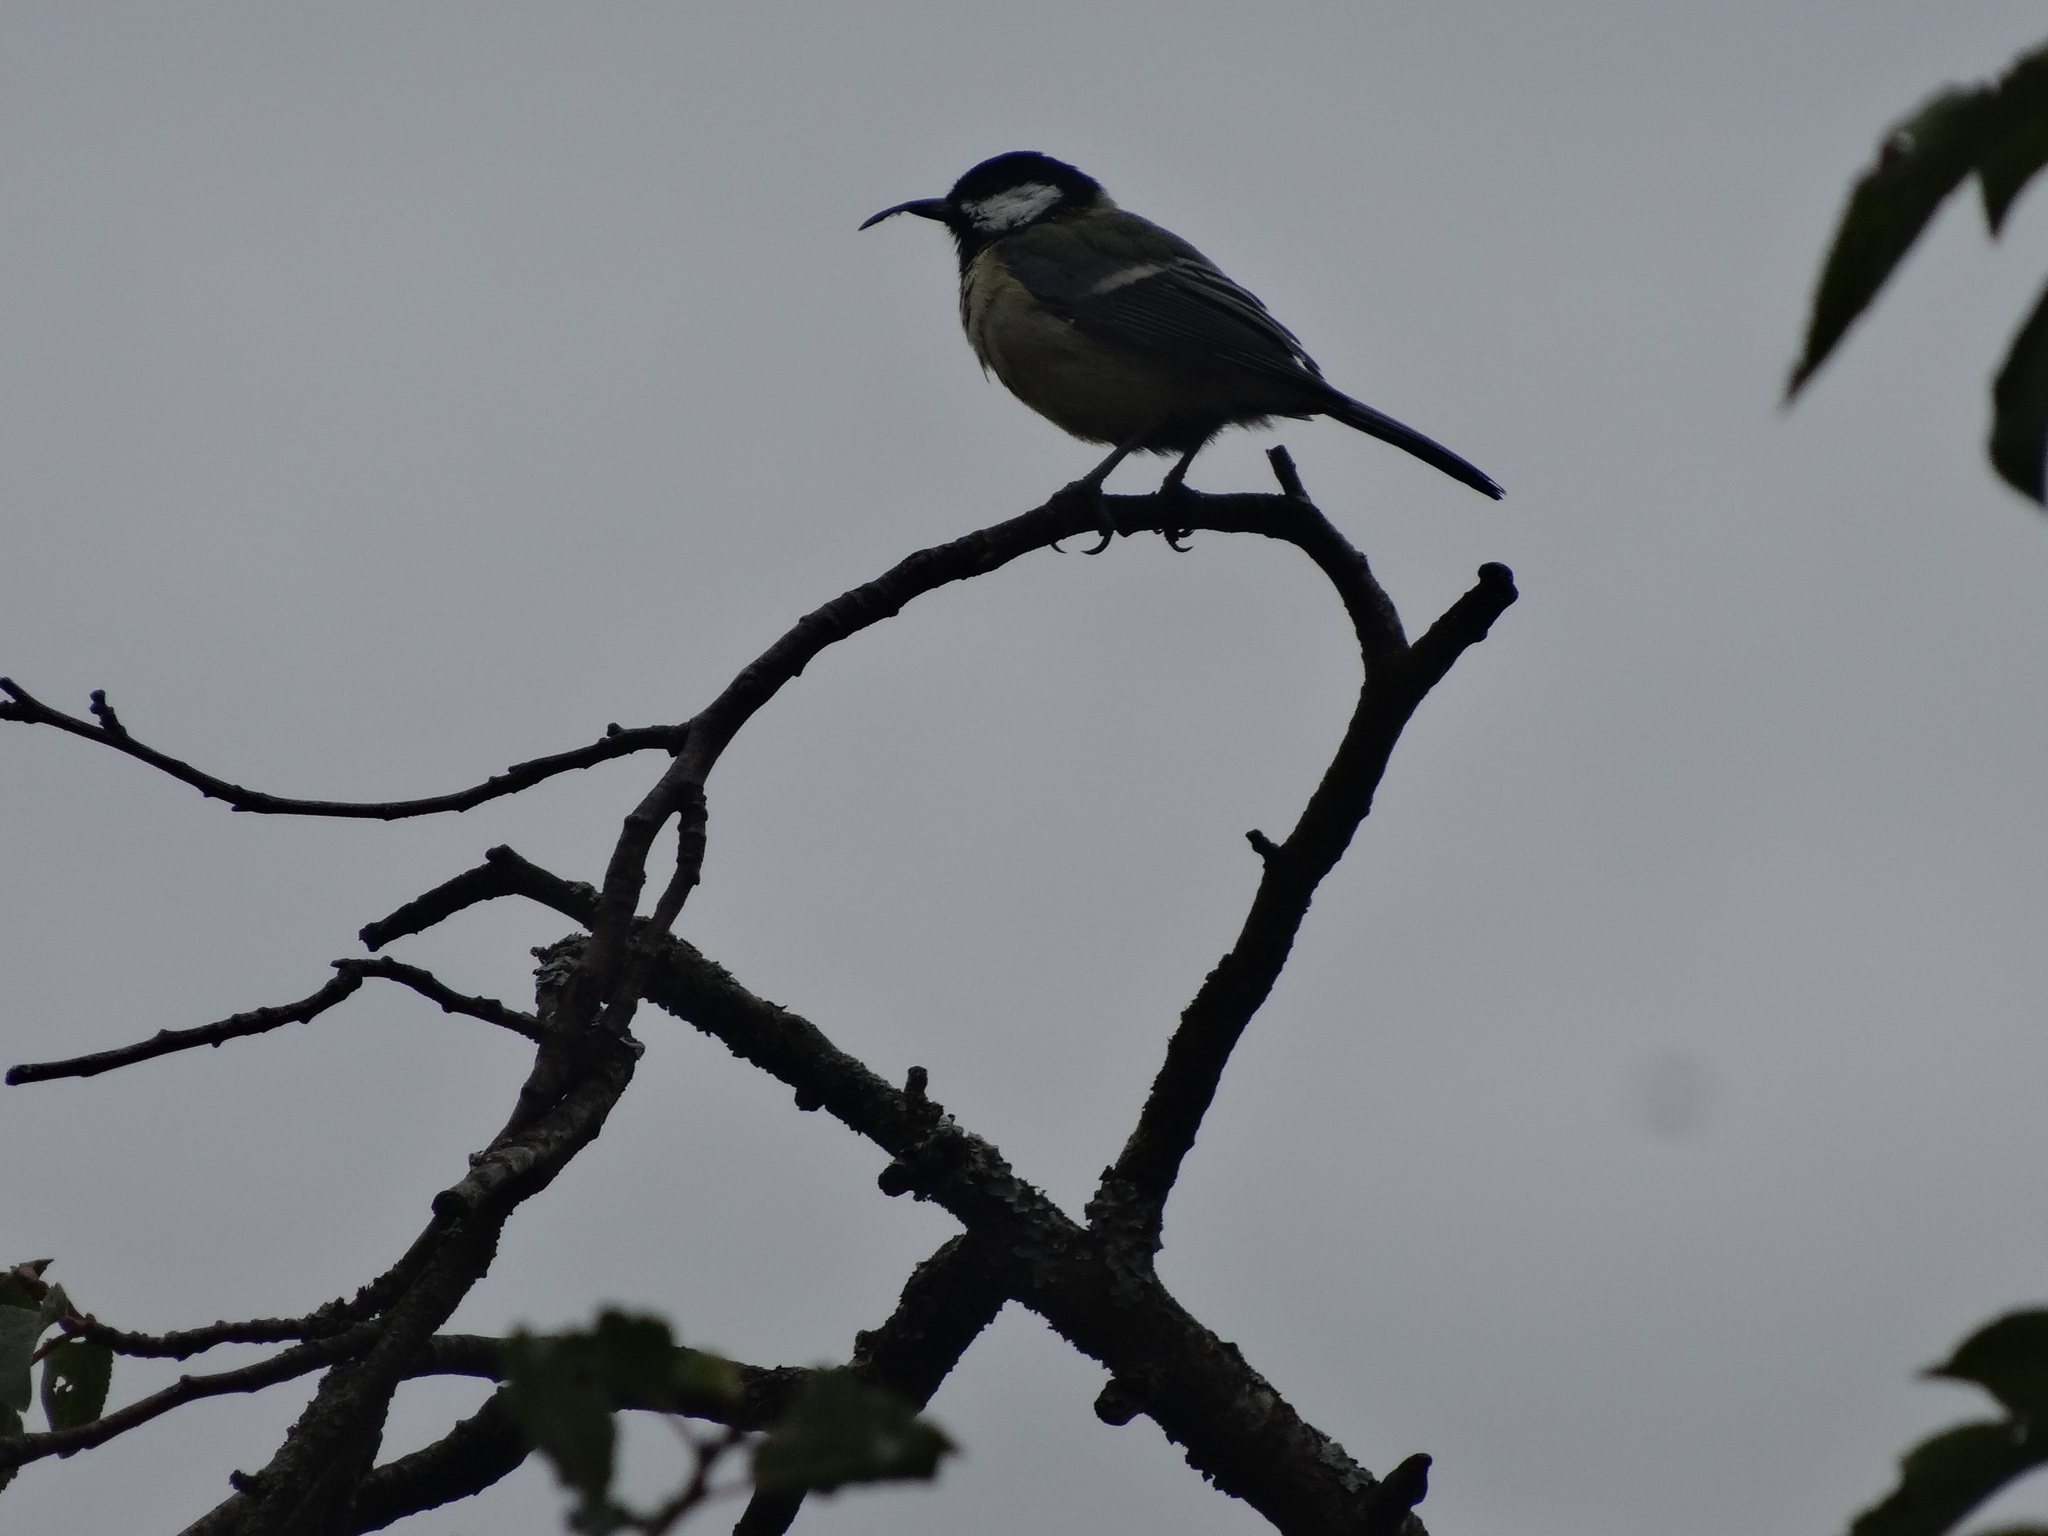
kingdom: Animalia
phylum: Chordata
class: Aves
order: Passeriformes
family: Paridae
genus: Parus
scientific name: Parus major
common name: Great tit
